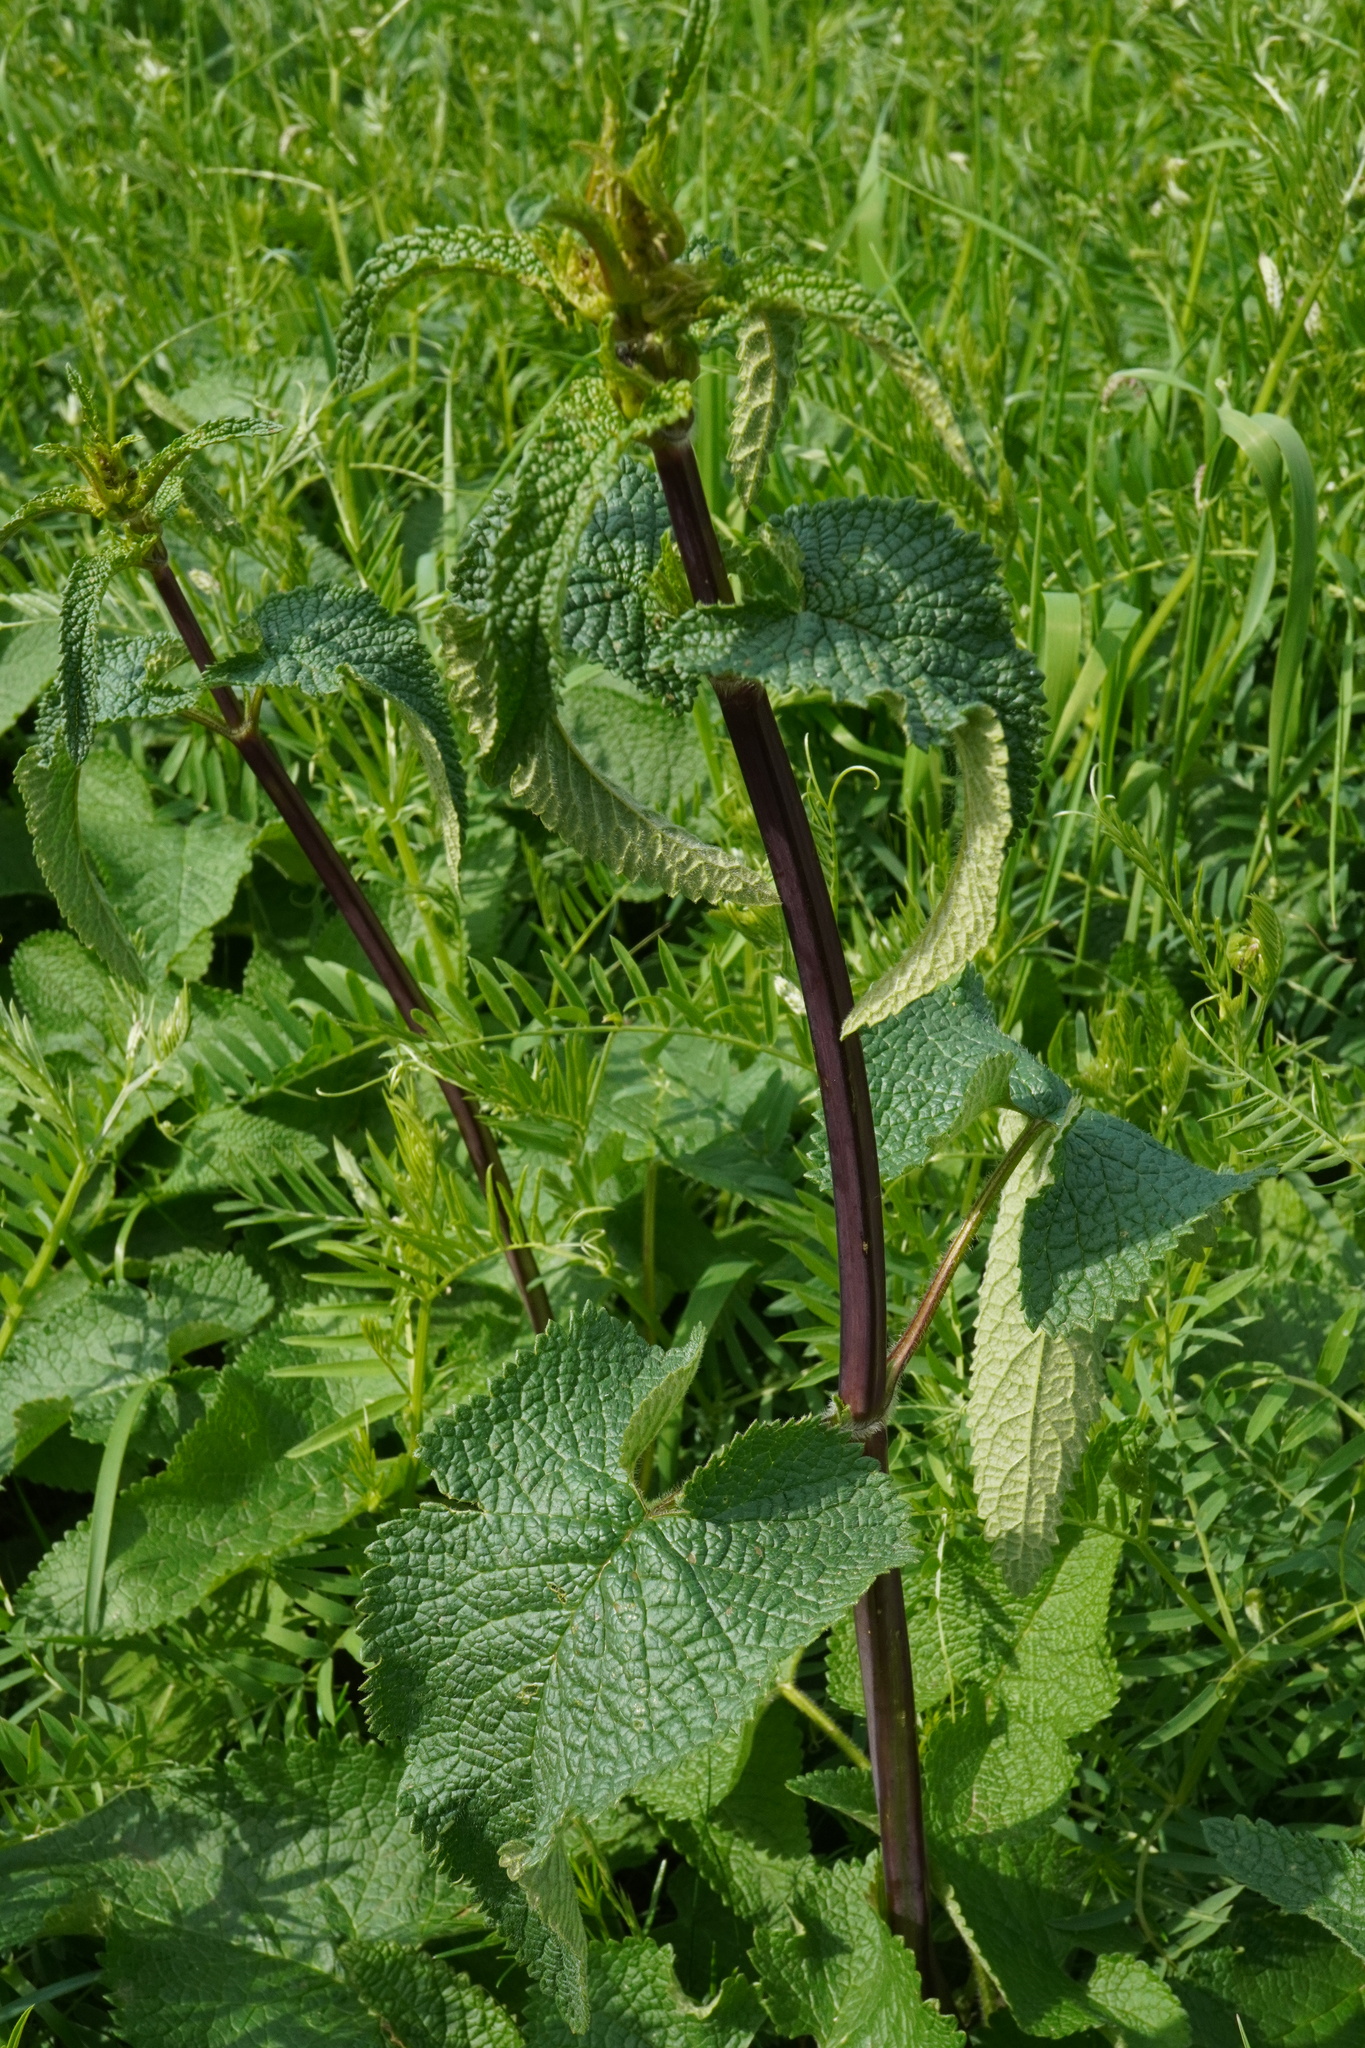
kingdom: Plantae
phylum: Tracheophyta
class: Magnoliopsida
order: Lamiales
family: Lamiaceae
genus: Phlomoides
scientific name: Phlomoides tuberosa
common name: Tuberous jerusalem sage
